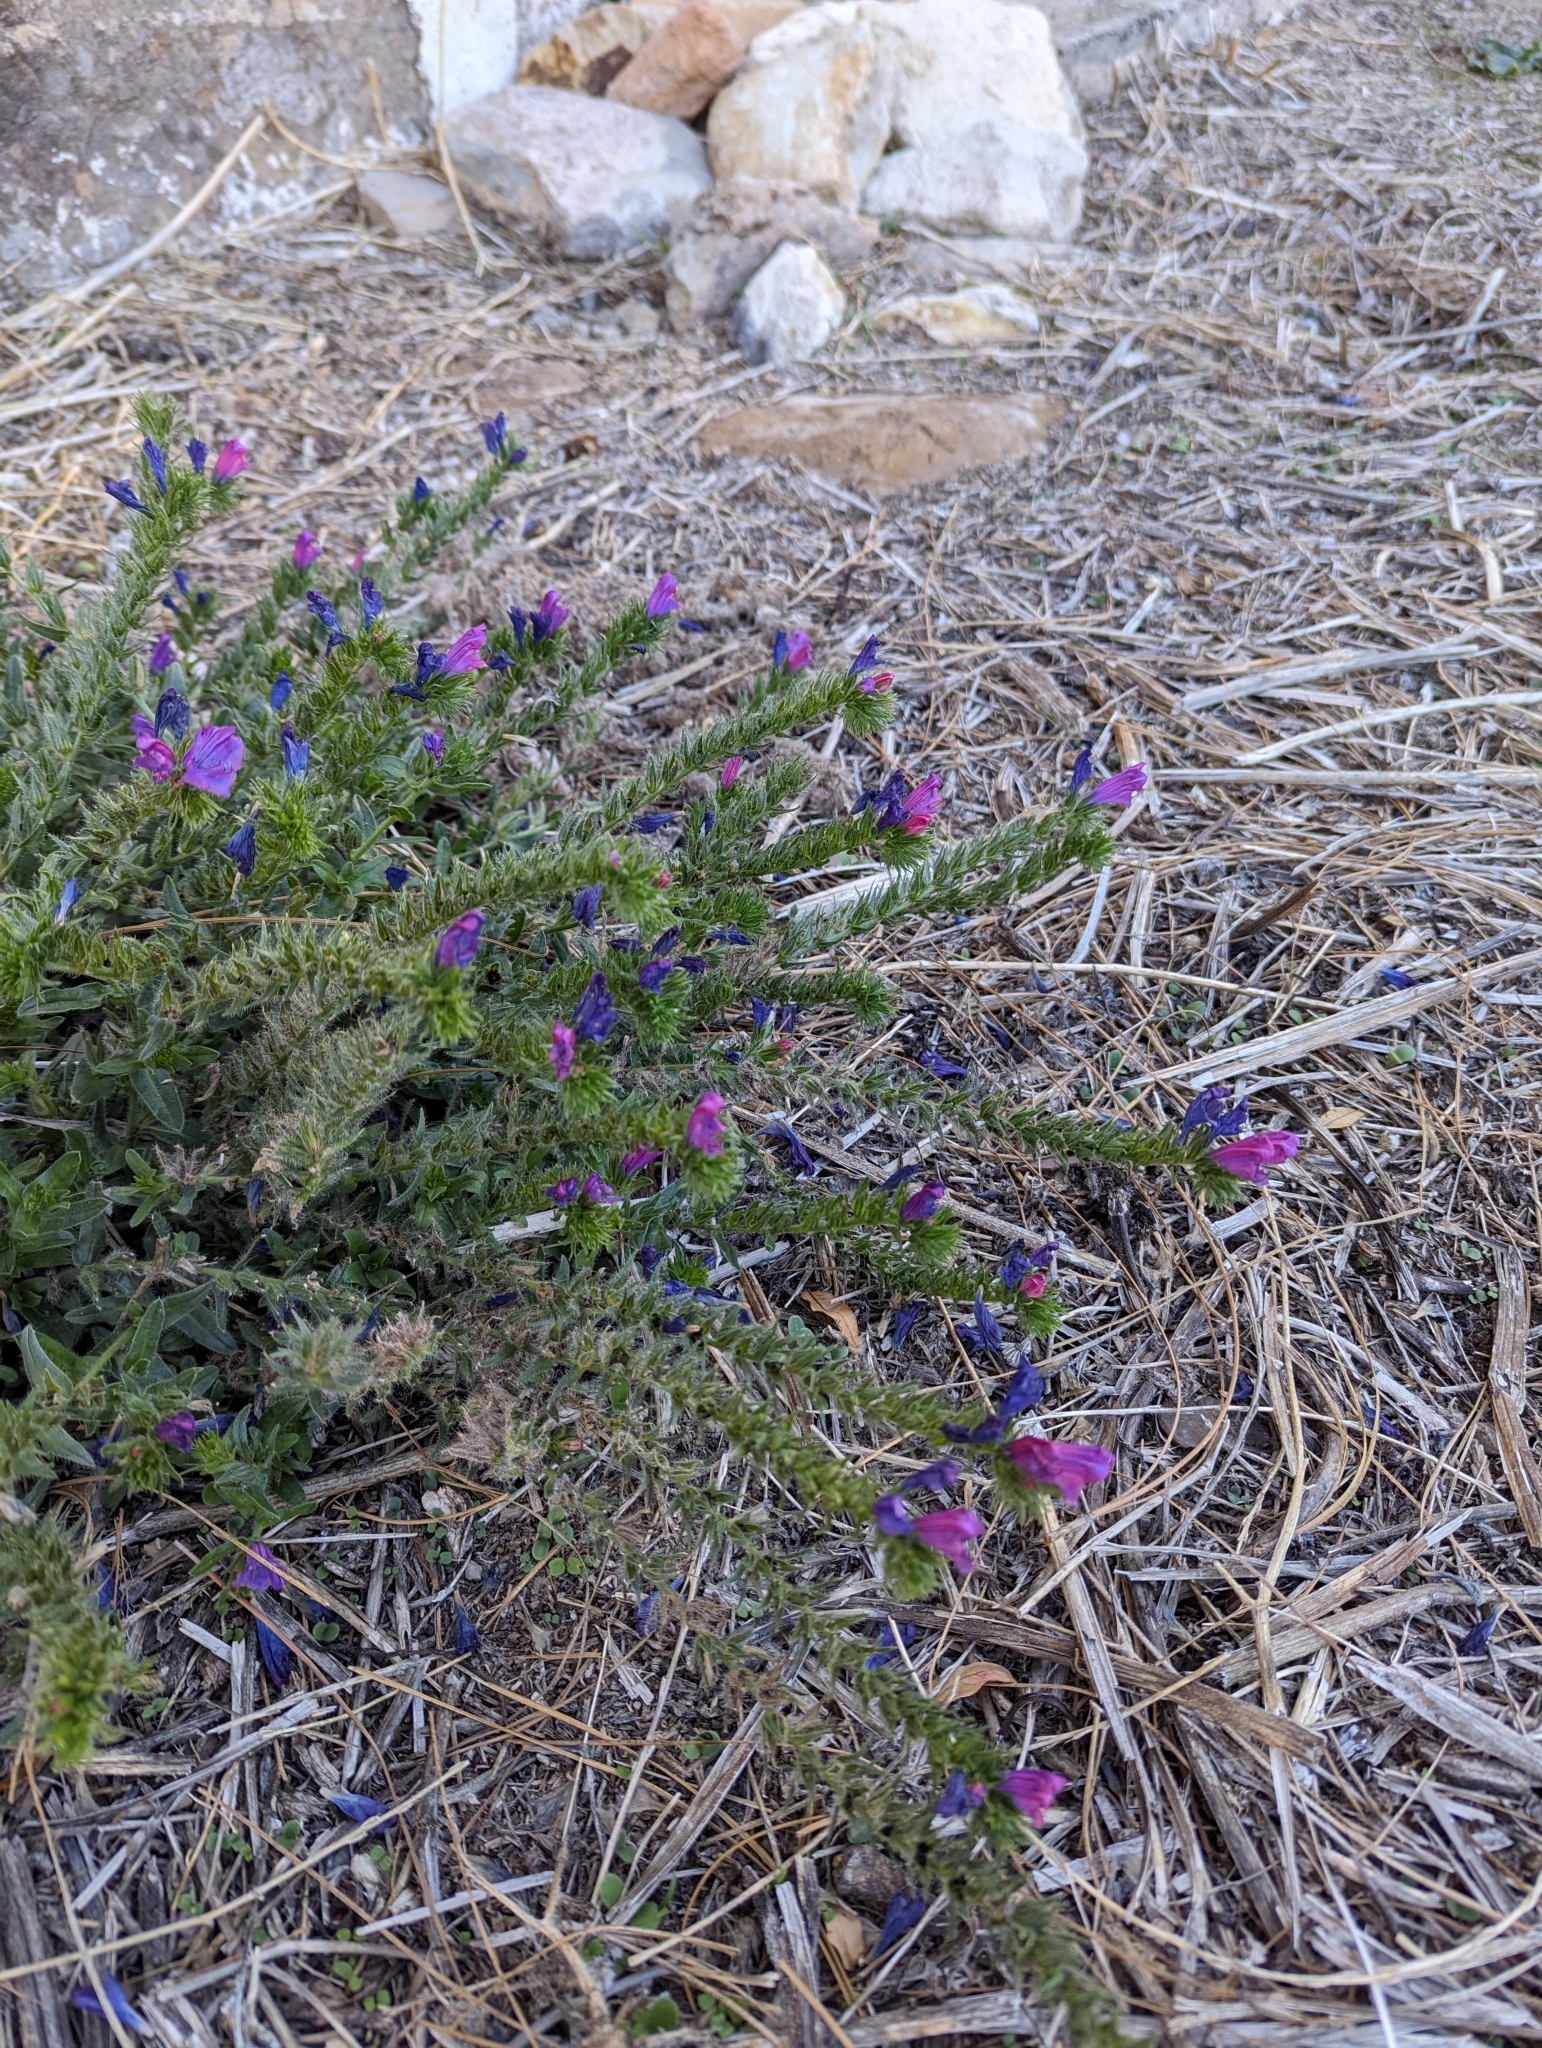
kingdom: Plantae
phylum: Tracheophyta
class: Magnoliopsida
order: Boraginales
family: Boraginaceae
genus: Echium
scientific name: Echium plantagineum
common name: Purple viper's-bugloss
